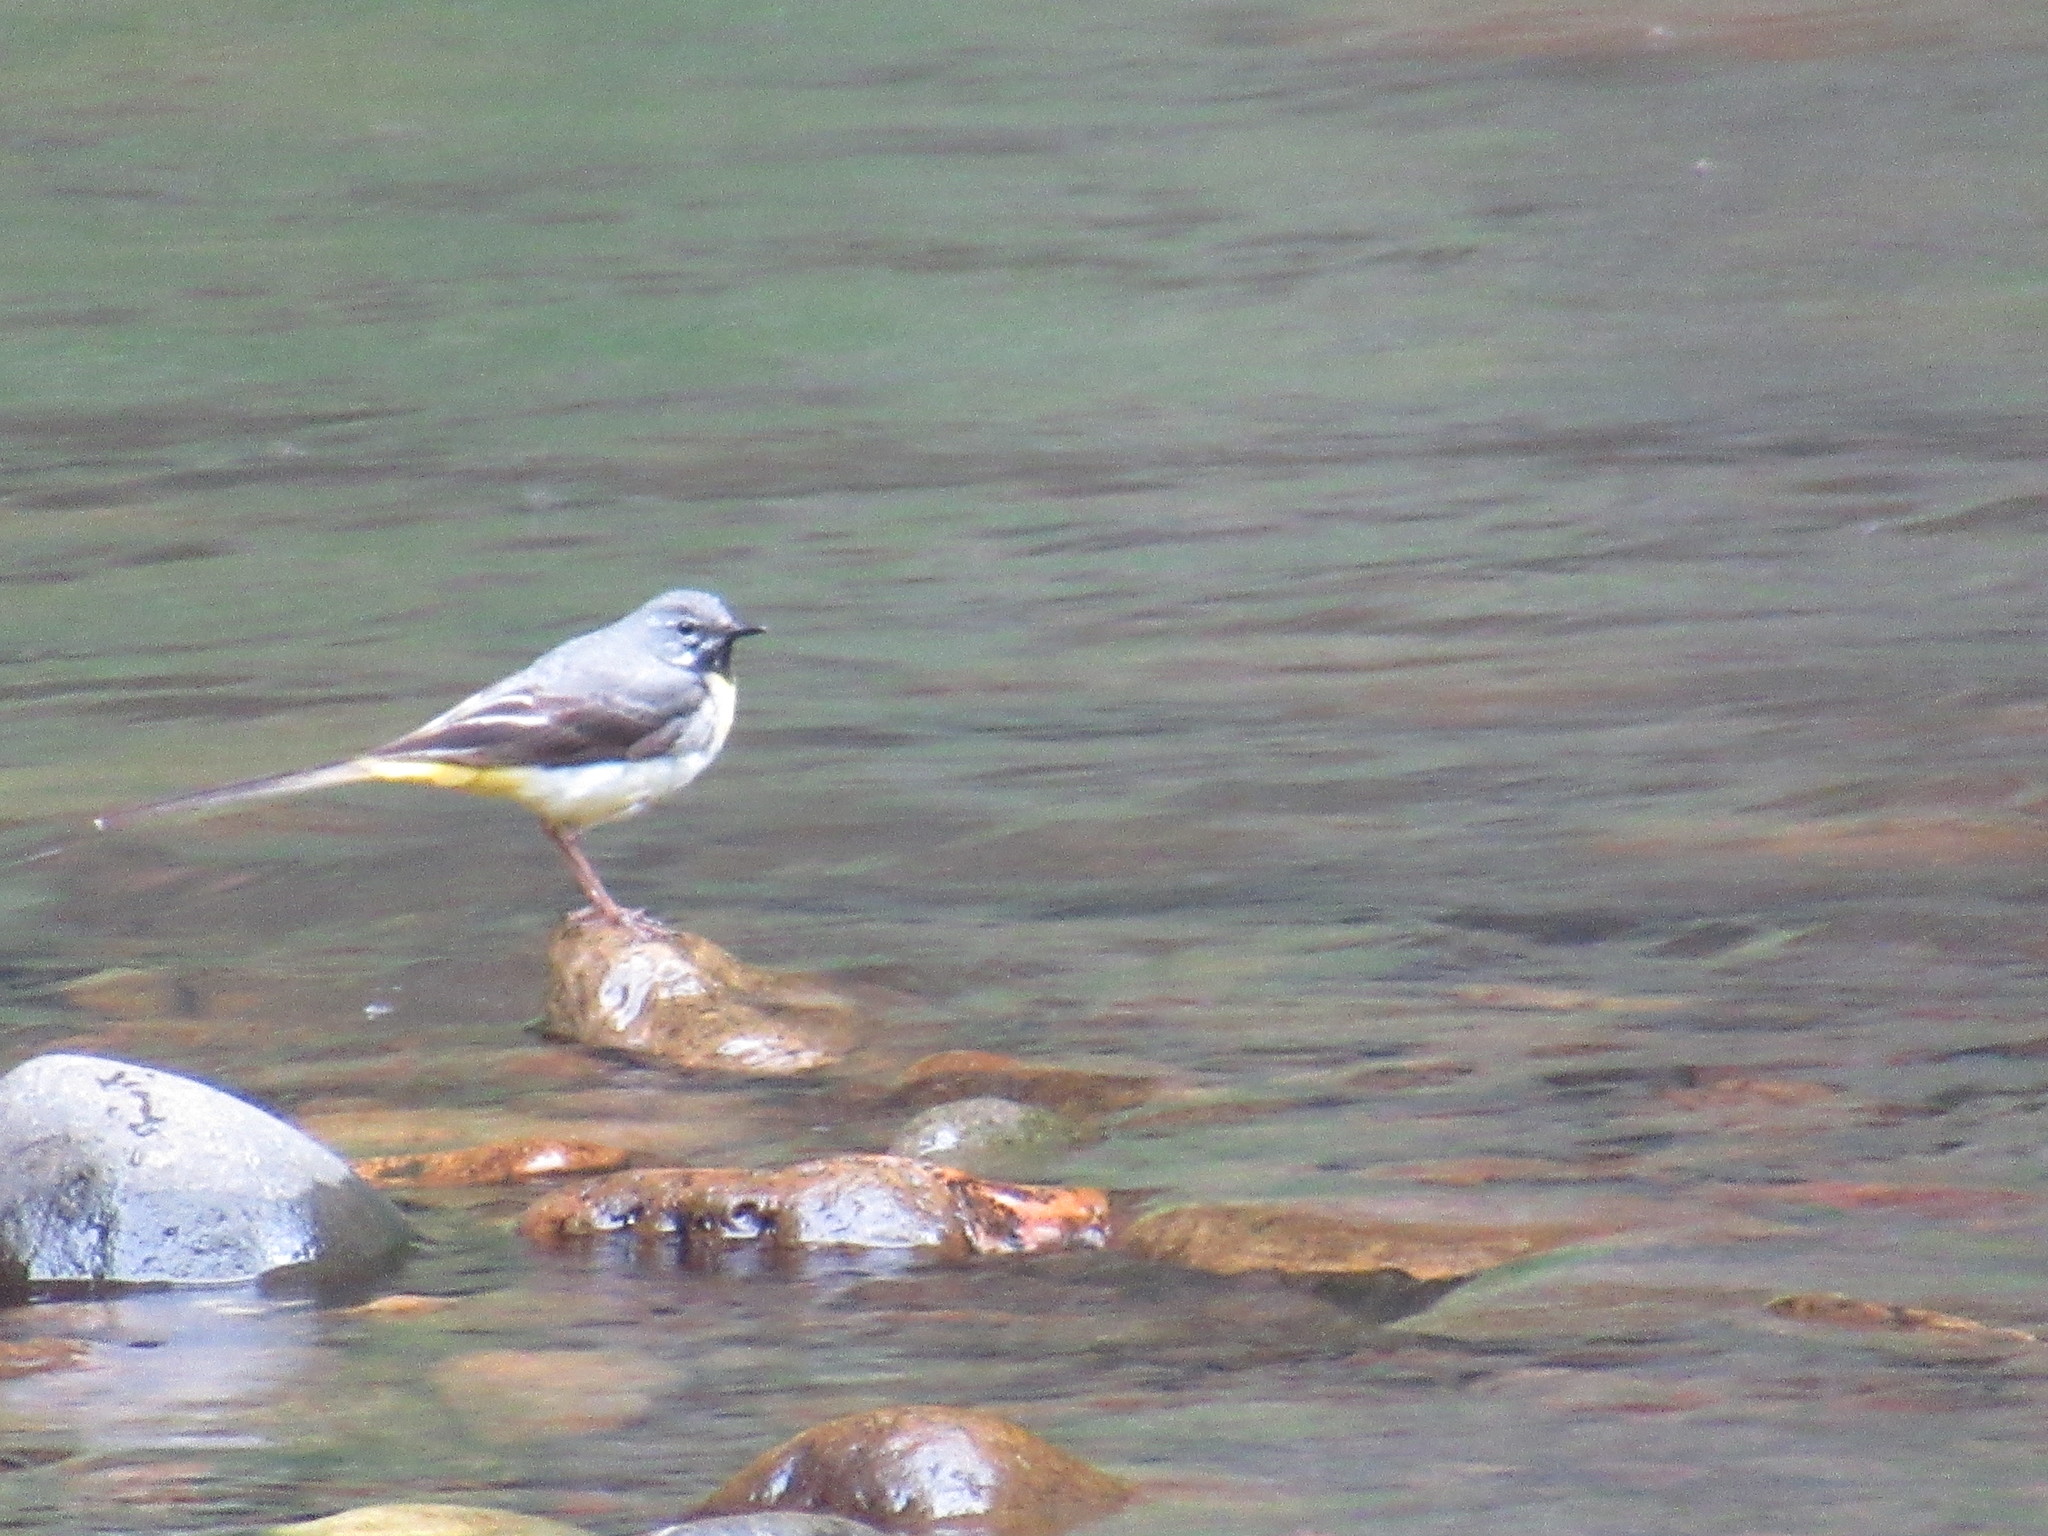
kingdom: Animalia
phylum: Chordata
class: Aves
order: Passeriformes
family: Motacillidae
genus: Motacilla
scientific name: Motacilla cinerea
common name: Grey wagtail
